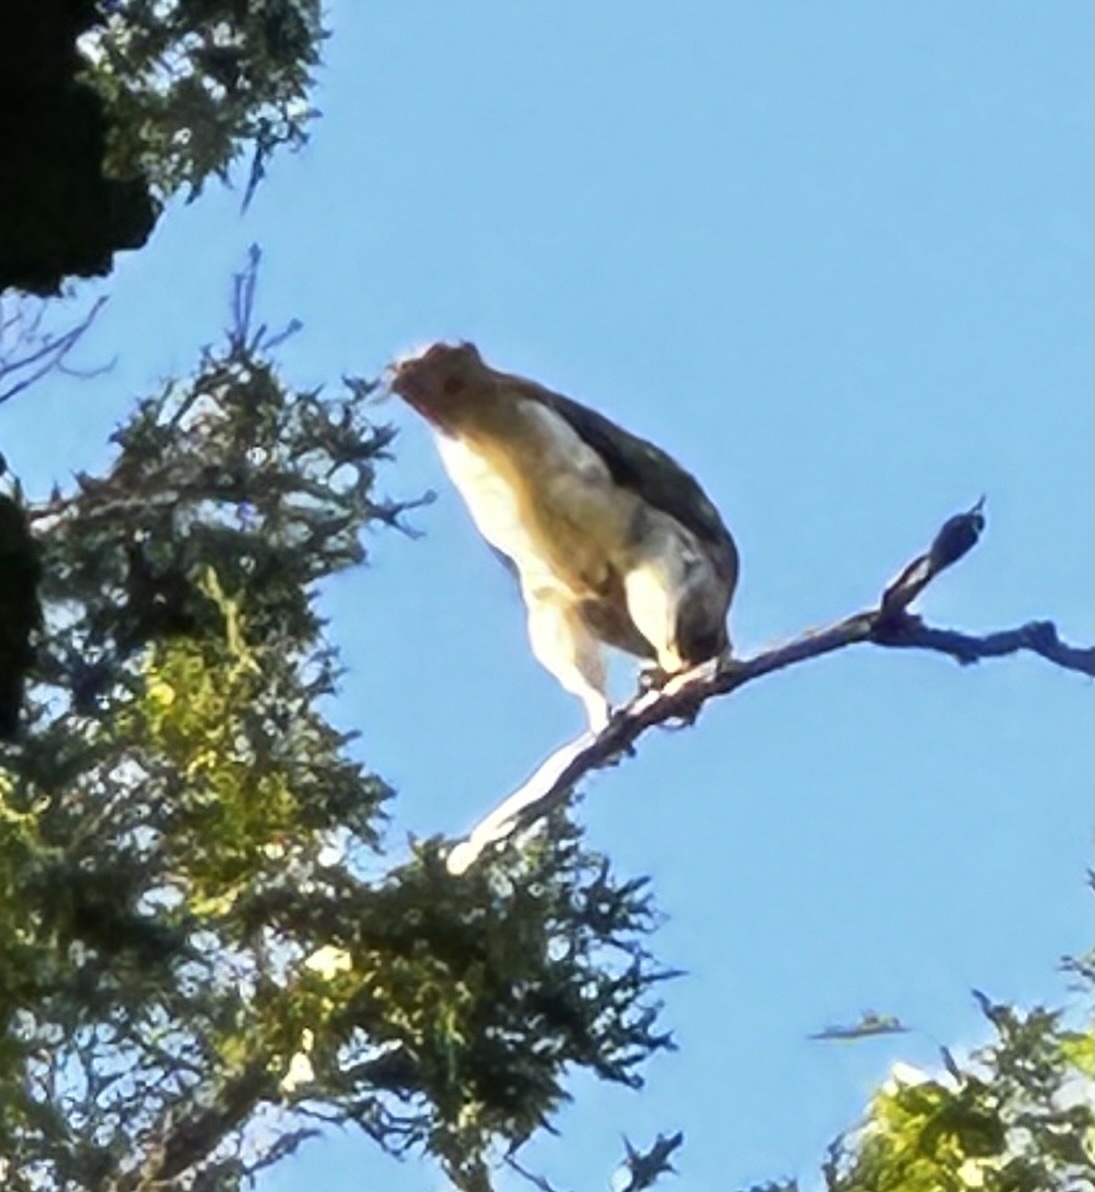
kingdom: Animalia
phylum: Chordata
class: Aves
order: Accipitriformes
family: Accipitridae
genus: Buteo
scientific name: Buteo jamaicensis
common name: Red-tailed hawk
